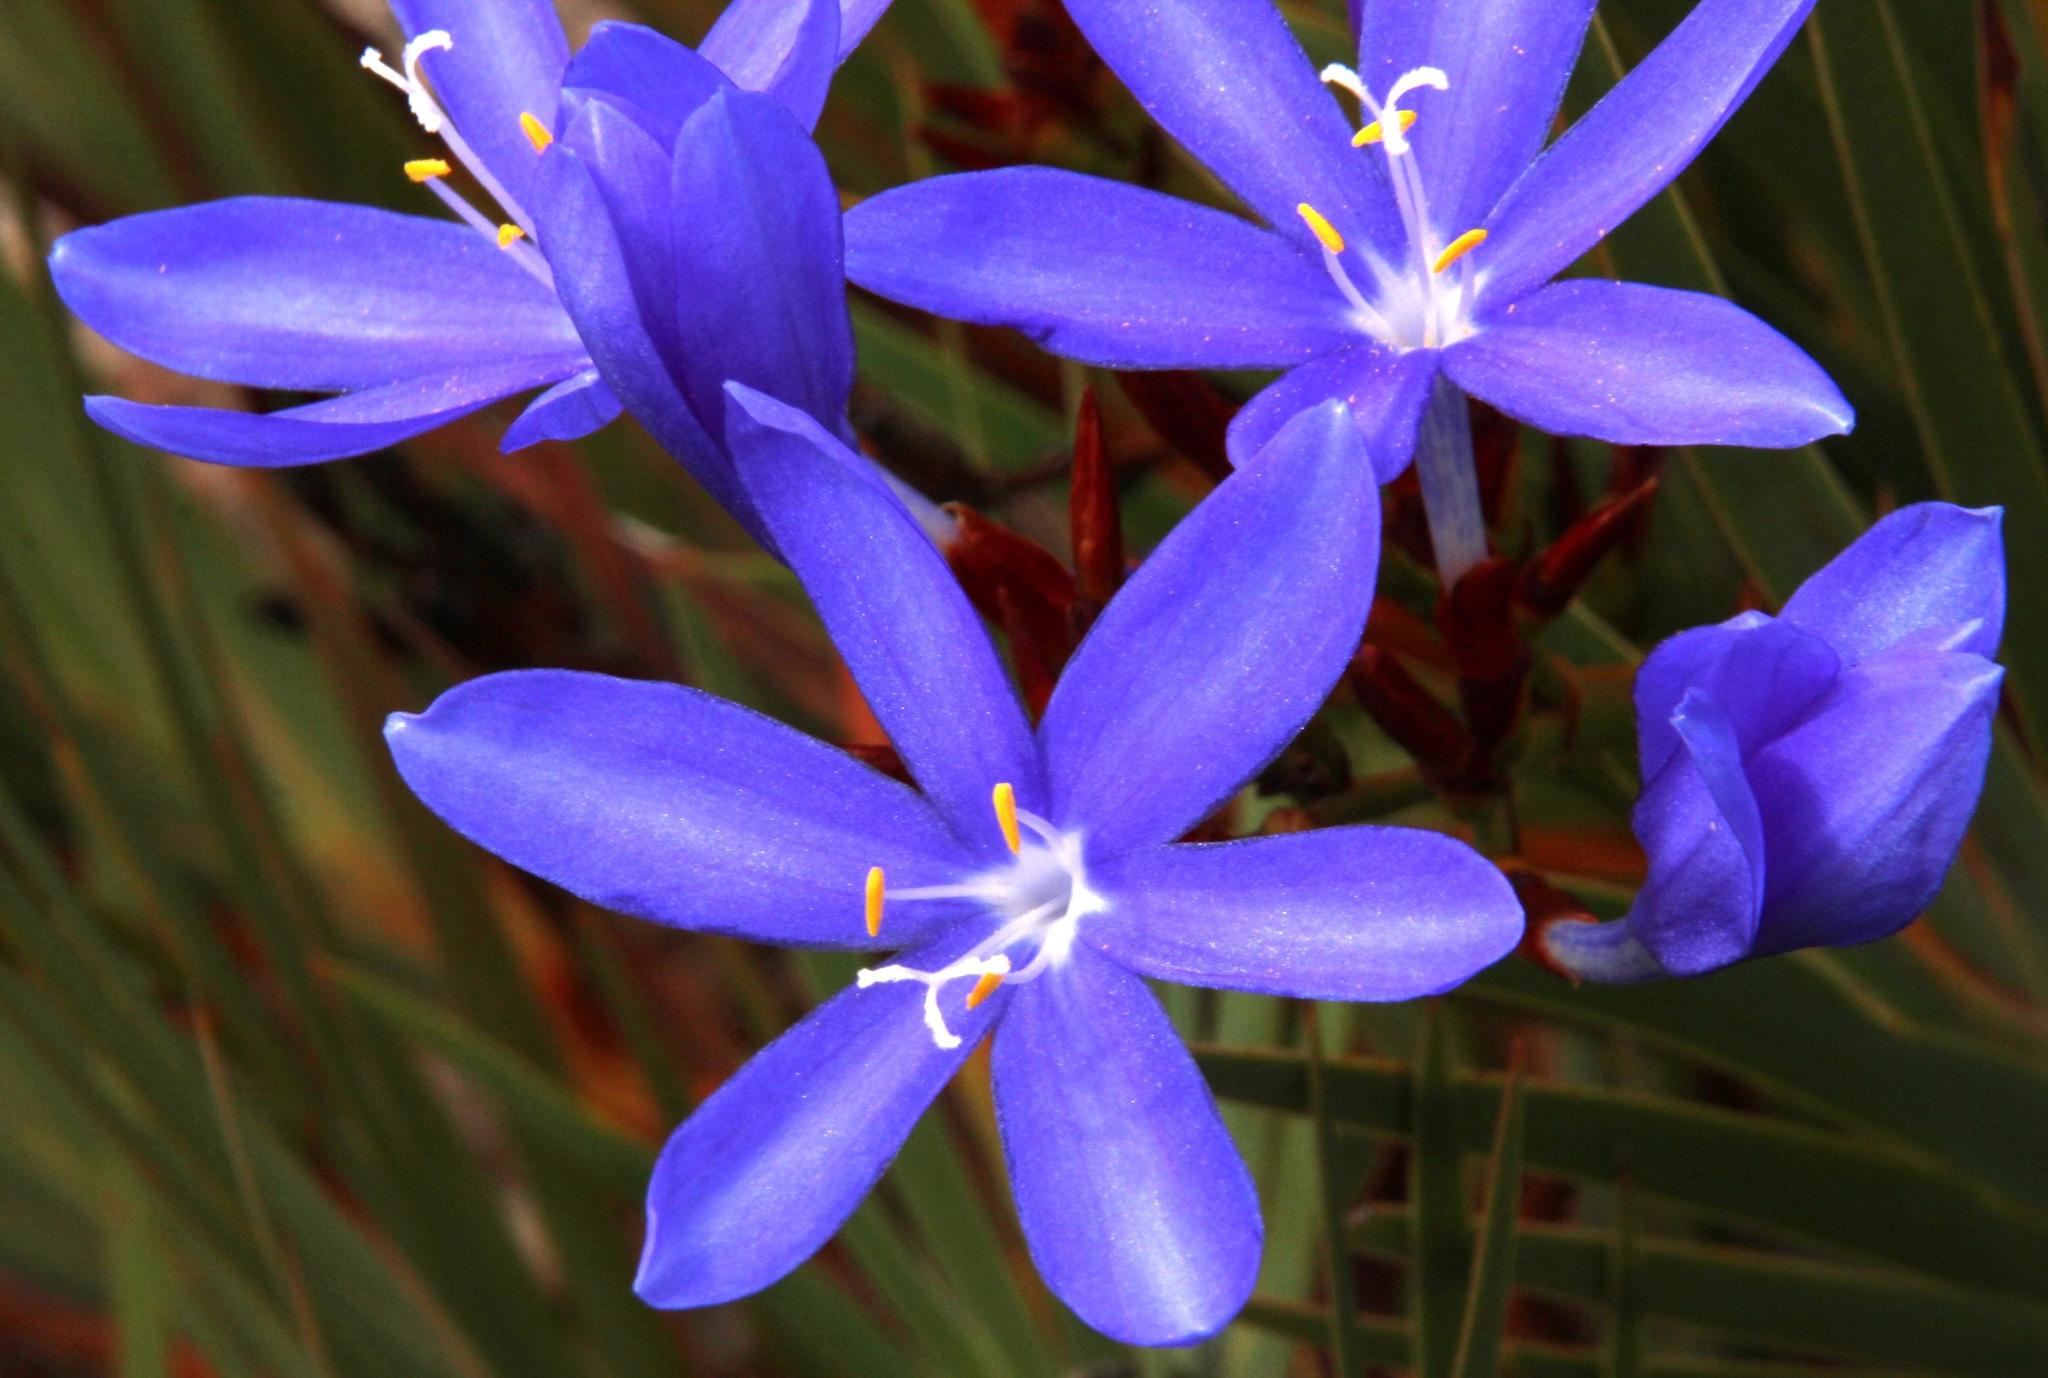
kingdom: Plantae
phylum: Tracheophyta
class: Liliopsida
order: Asparagales
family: Iridaceae
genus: Nivenia
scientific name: Nivenia stokoei
